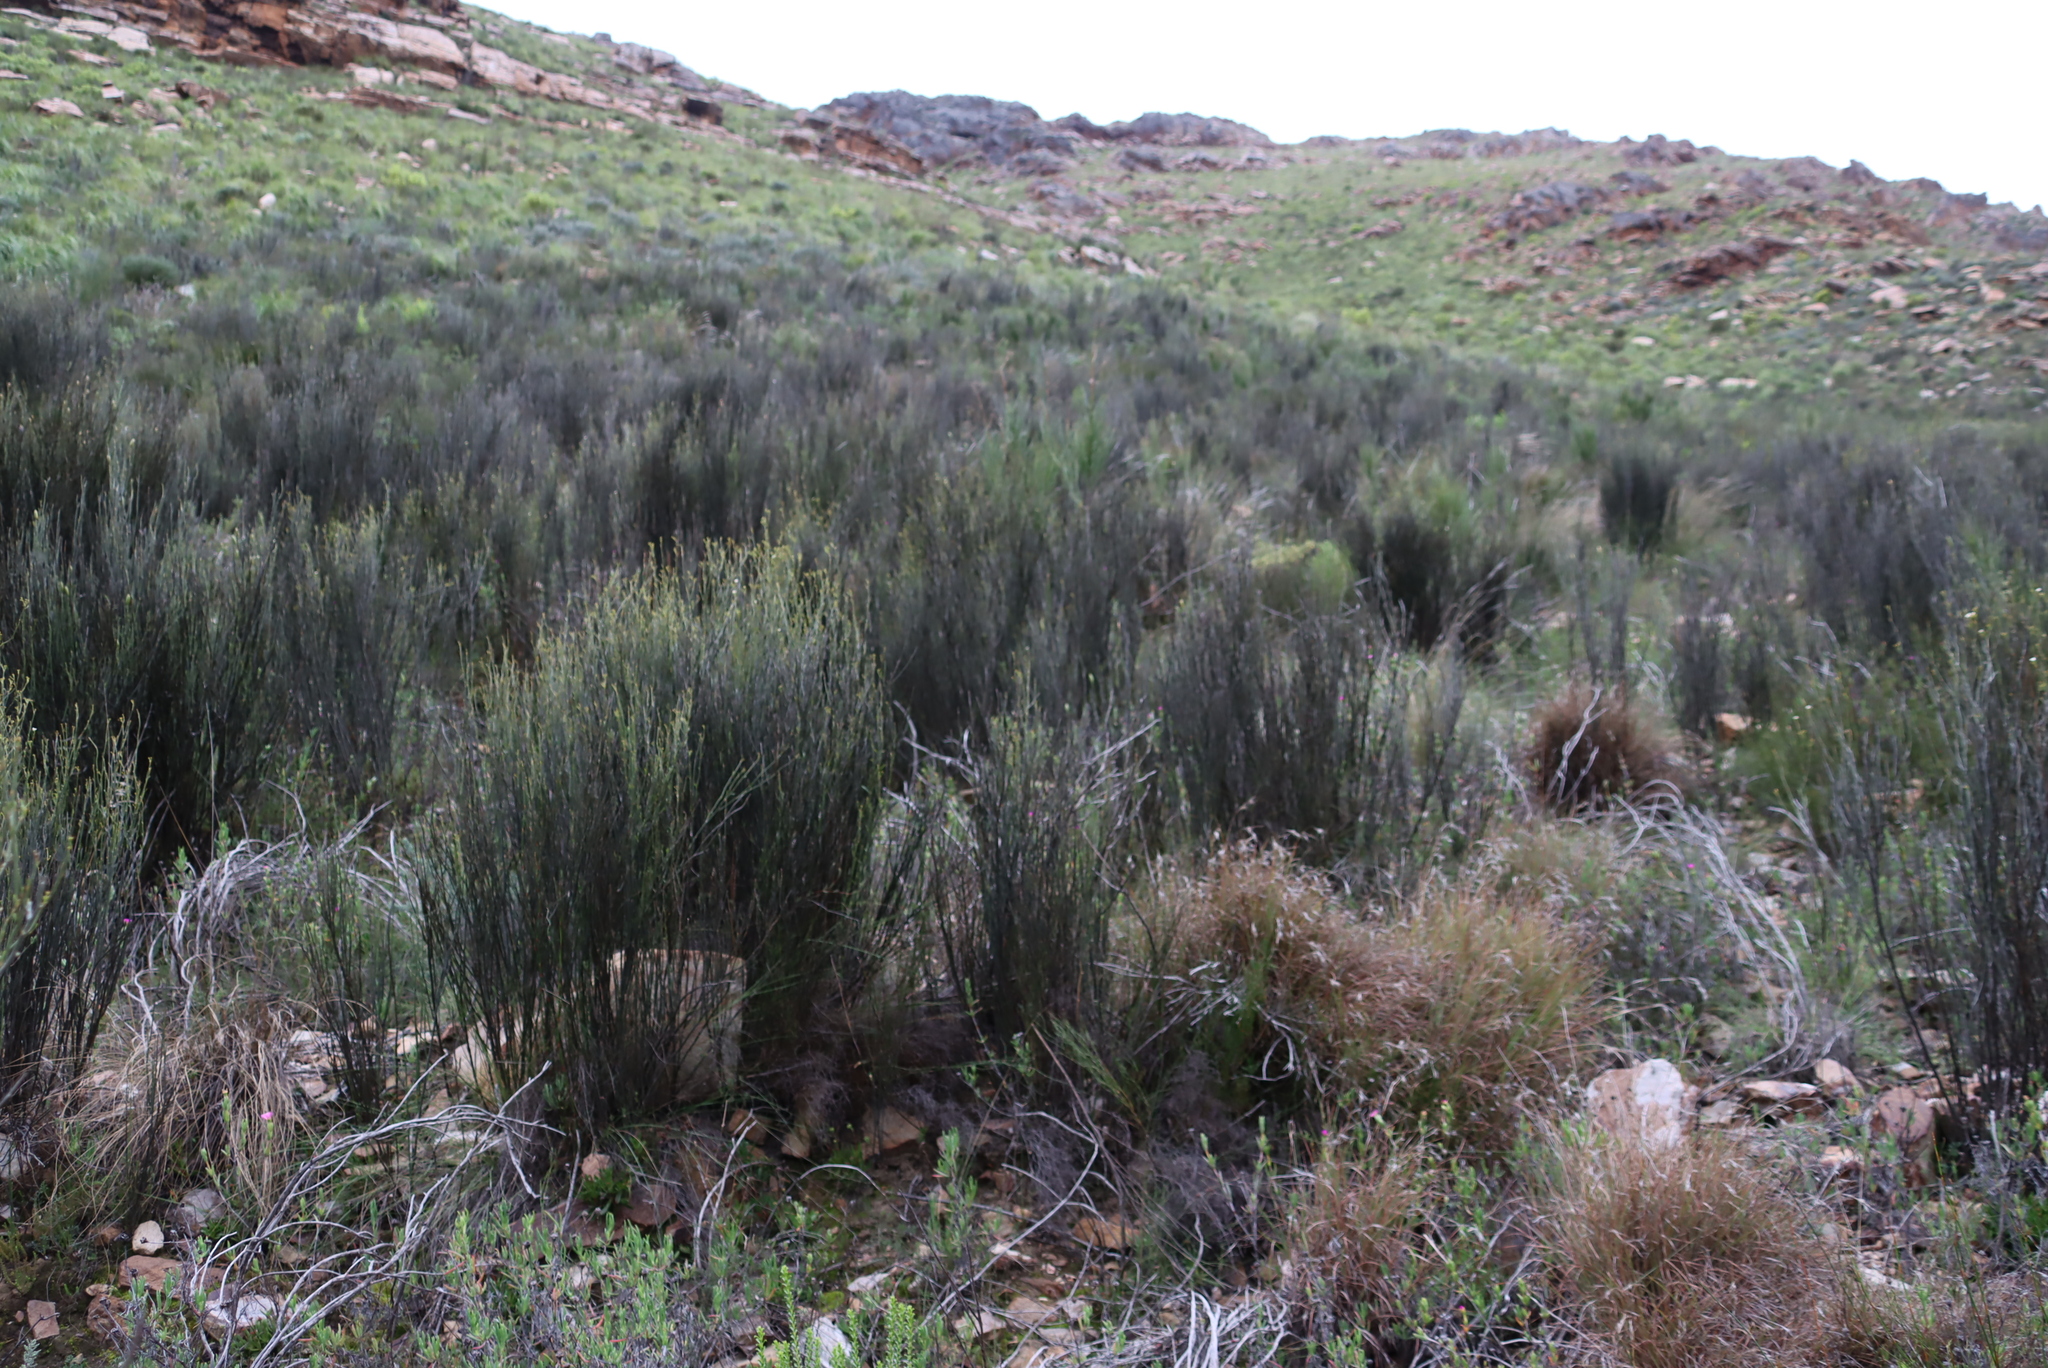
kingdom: Plantae
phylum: Tracheophyta
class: Magnoliopsida
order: Solanales
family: Montiniaceae
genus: Montinia
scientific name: Montinia caryophyllacea
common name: Wild clove-bush
